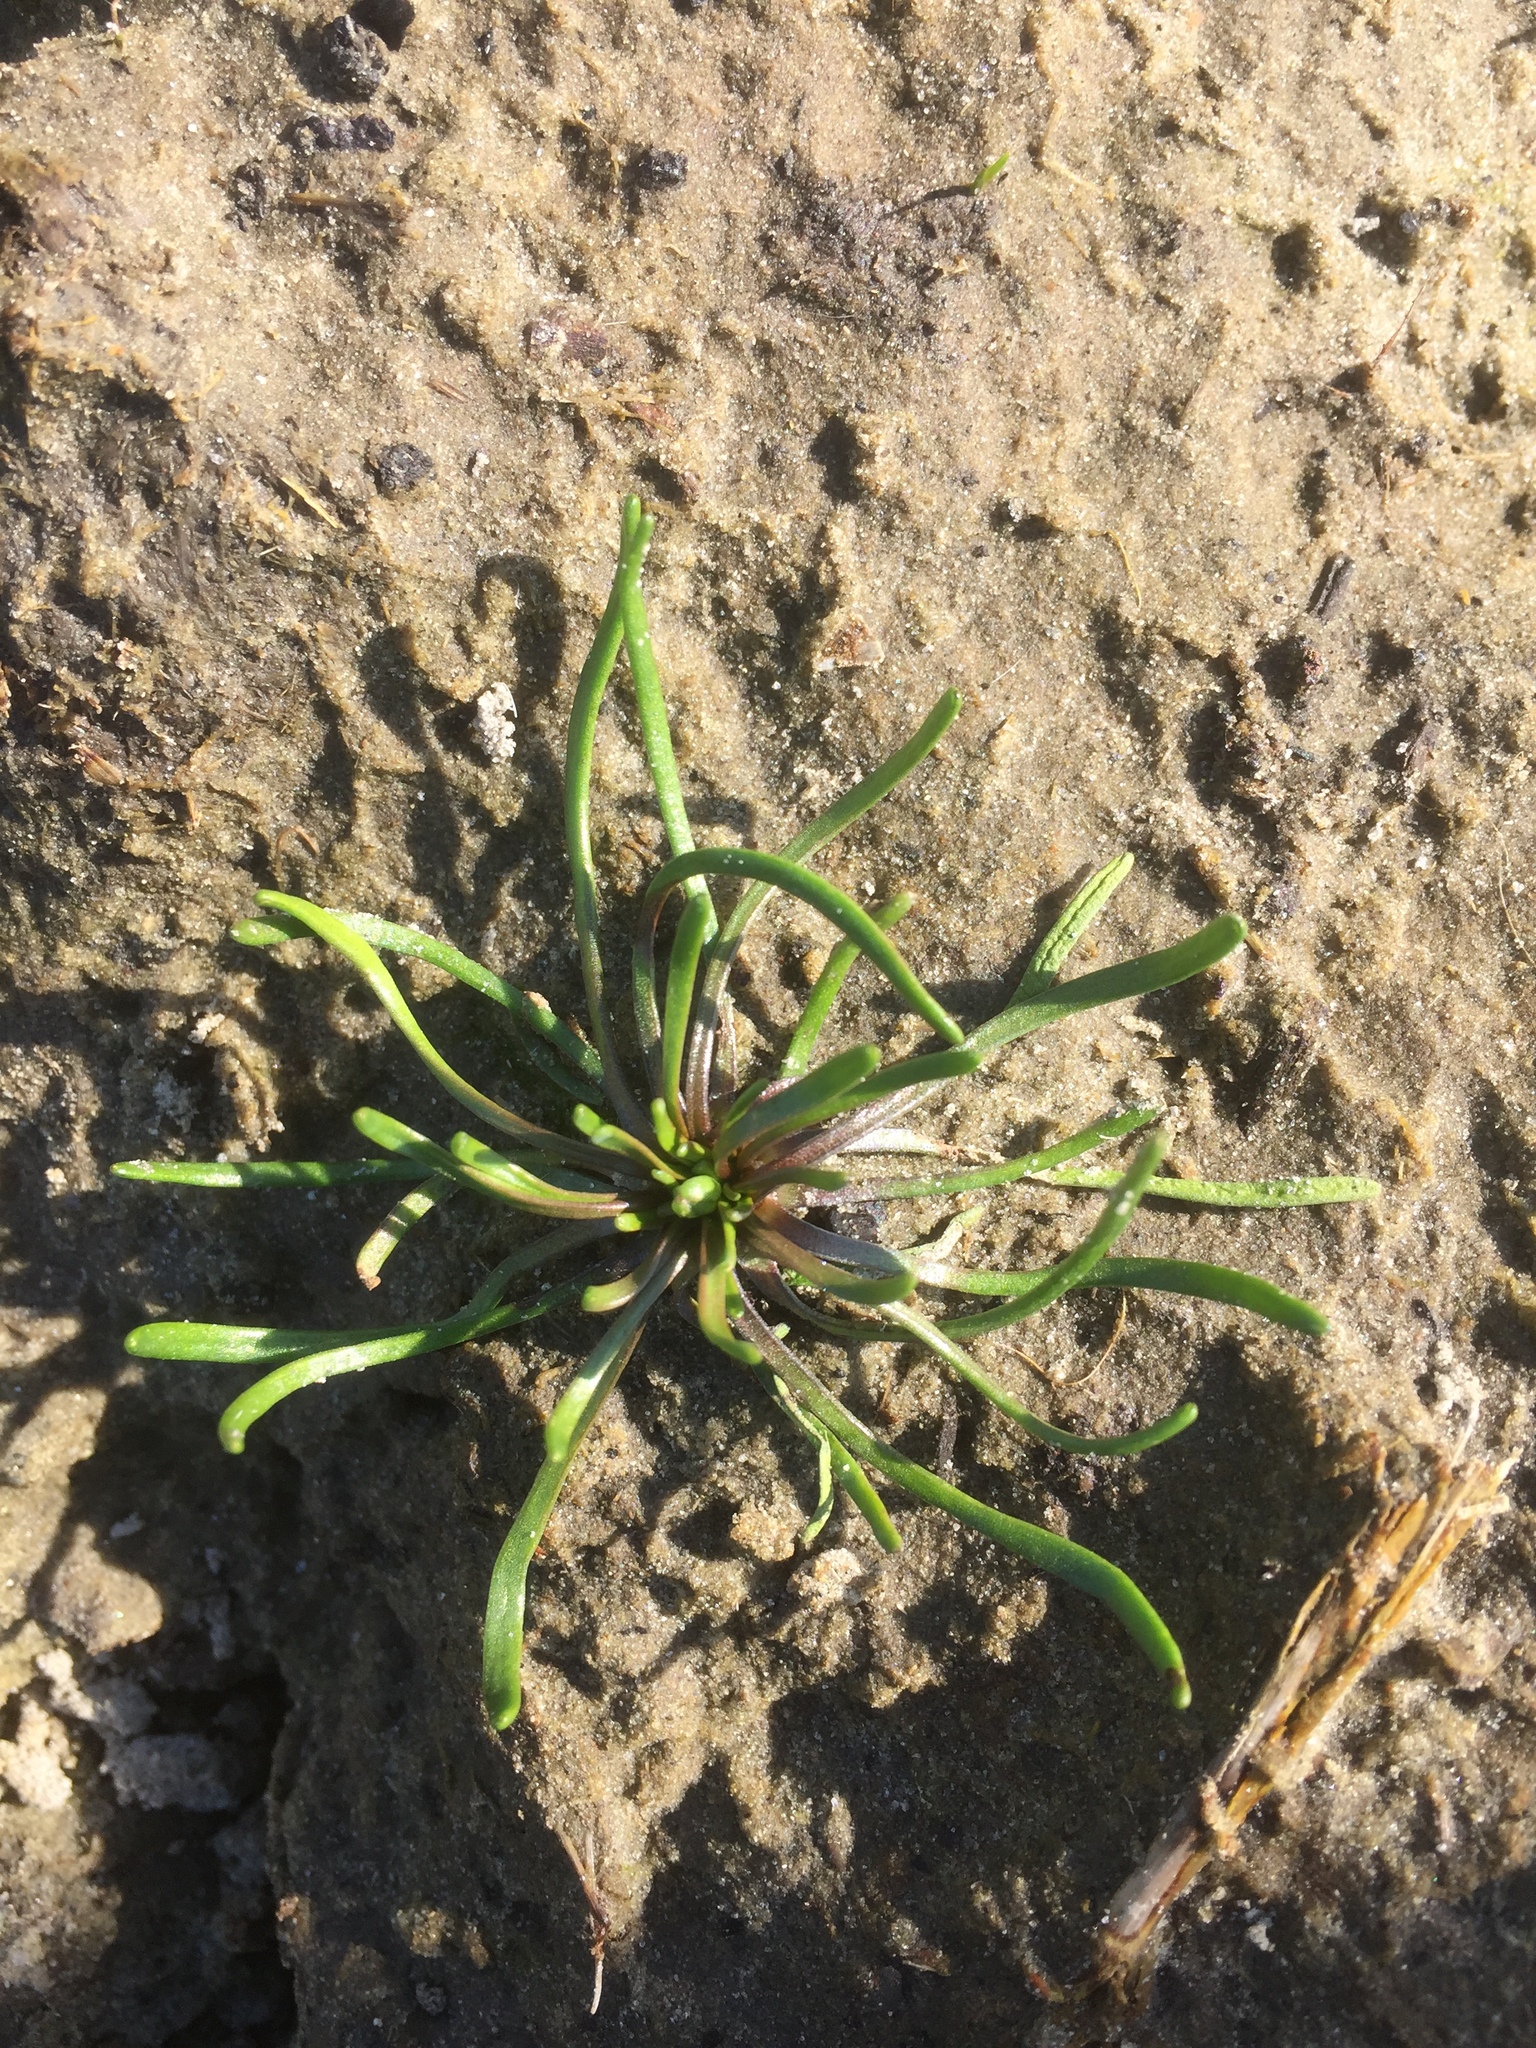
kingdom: Plantae
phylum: Tracheophyta
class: Magnoliopsida
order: Ranunculales
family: Ranunculaceae
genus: Myosurus
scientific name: Myosurus minimus
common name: Mousetail
